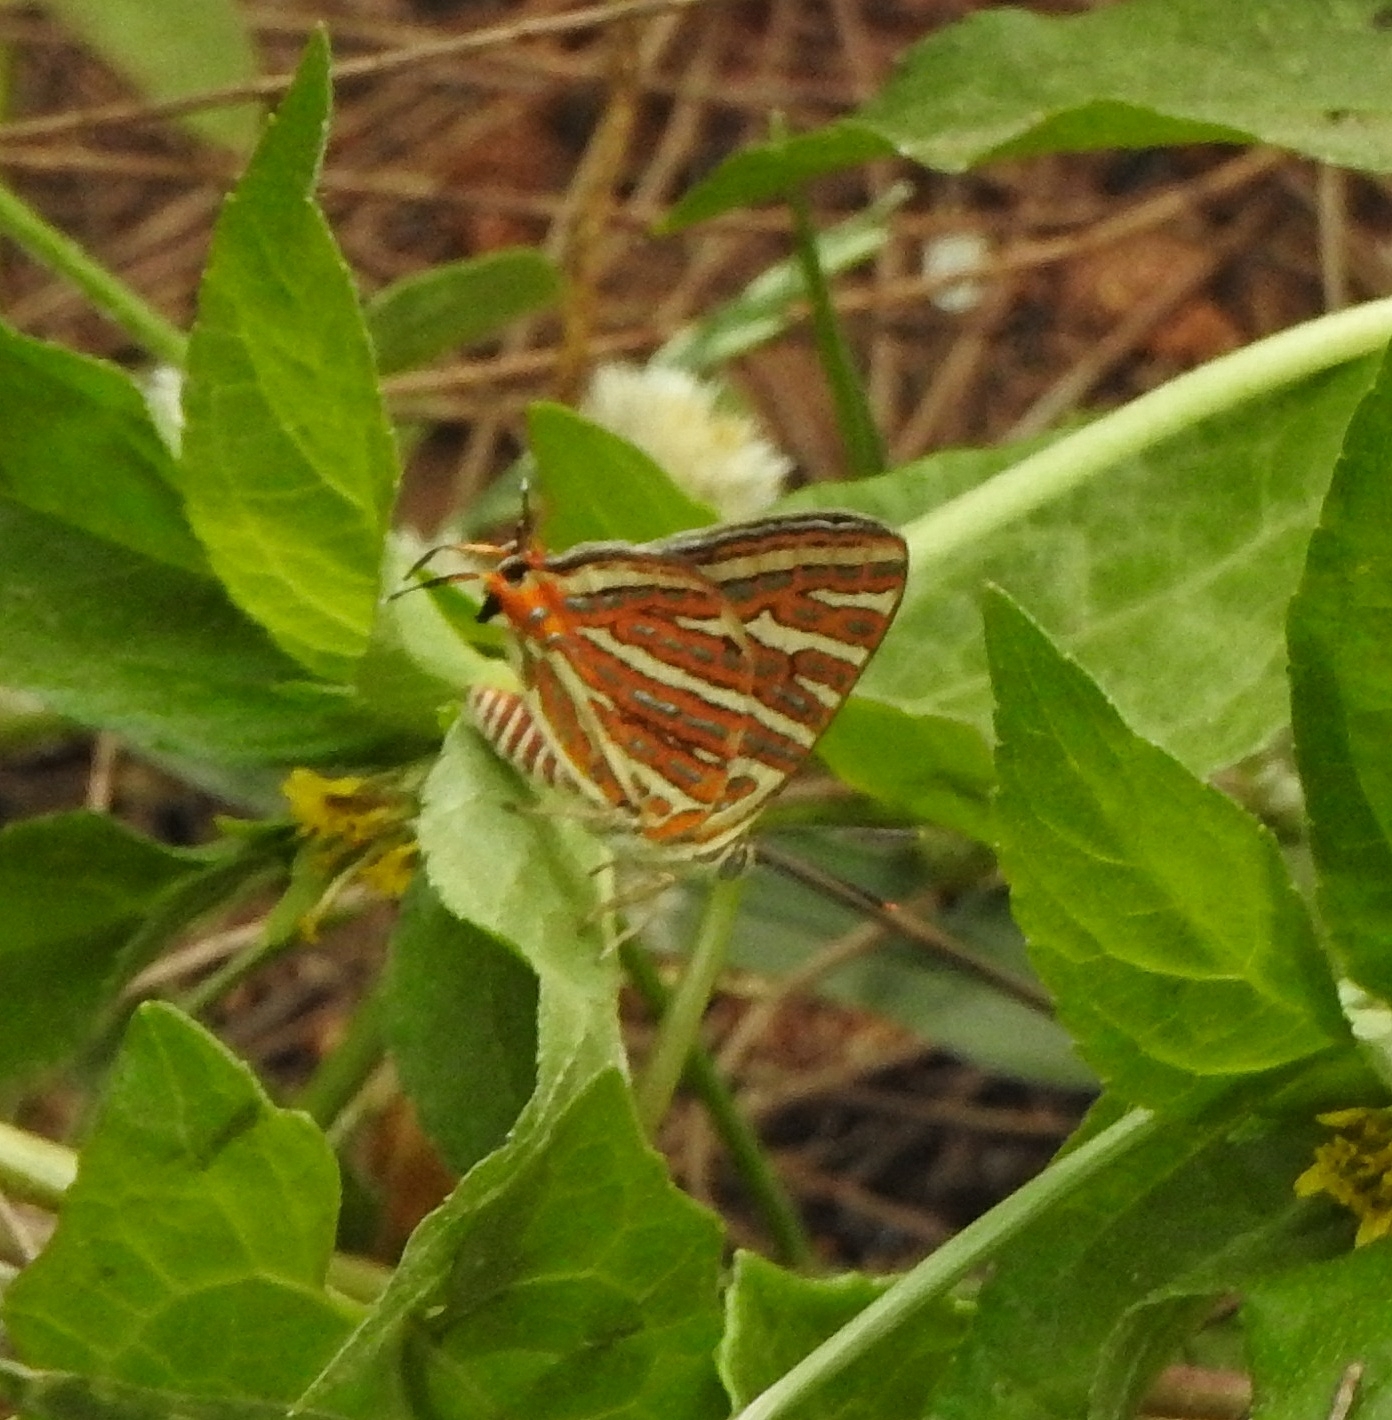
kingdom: Animalia
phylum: Arthropoda
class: Insecta
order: Lepidoptera
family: Lycaenidae
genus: Cigaritis
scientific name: Cigaritis vulcanus
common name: Common silverline
